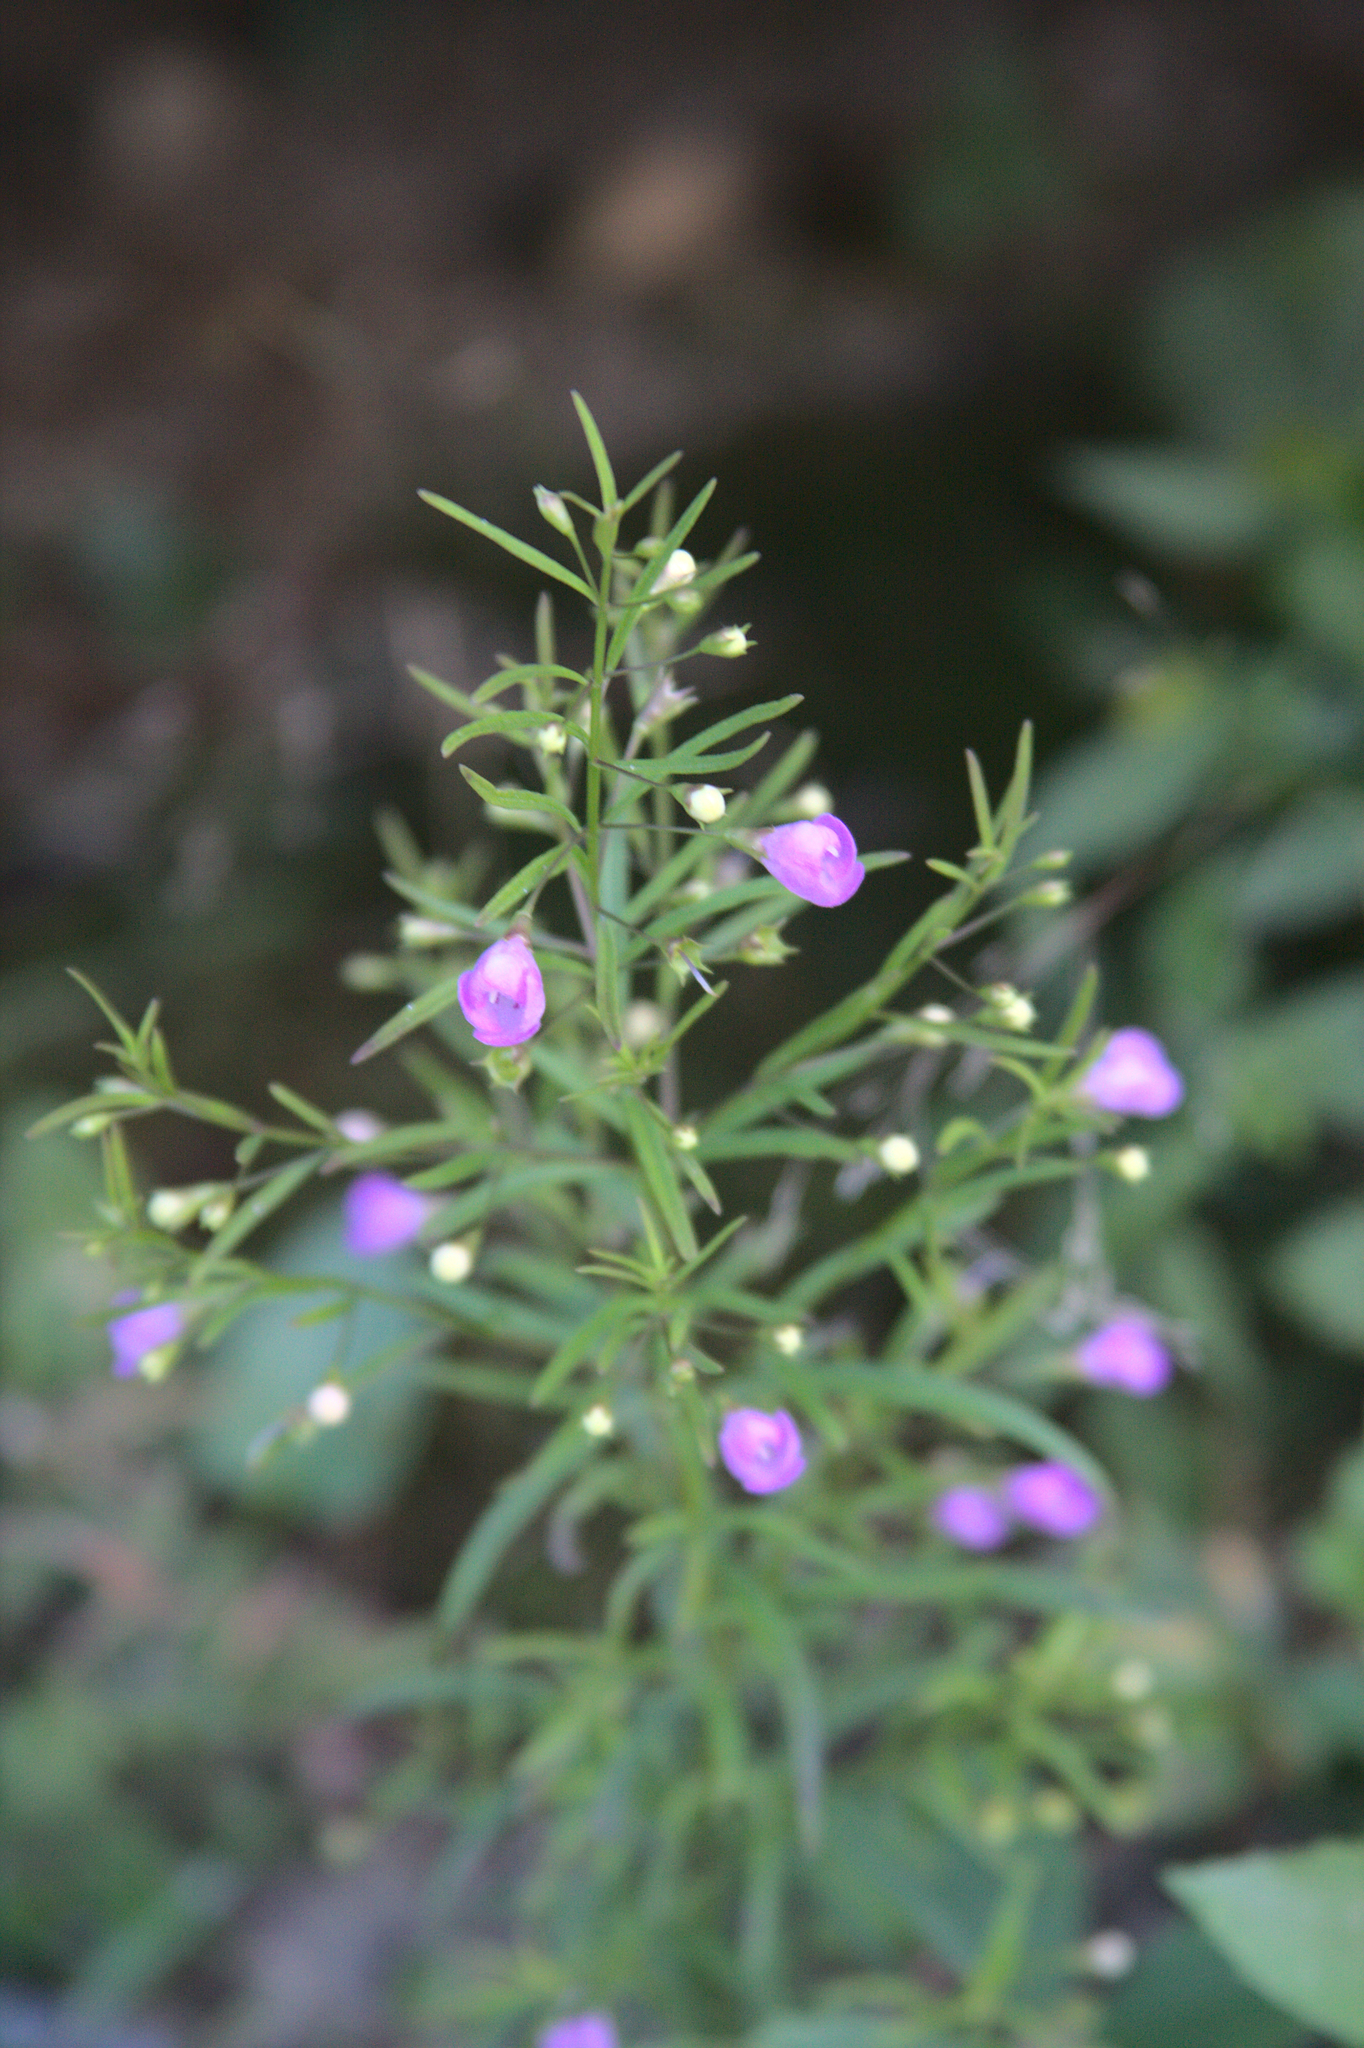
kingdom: Plantae
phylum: Tracheophyta
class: Magnoliopsida
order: Lamiales
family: Orobanchaceae
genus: Agalinis
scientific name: Agalinis tenuifolia
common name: Slender agalinis
